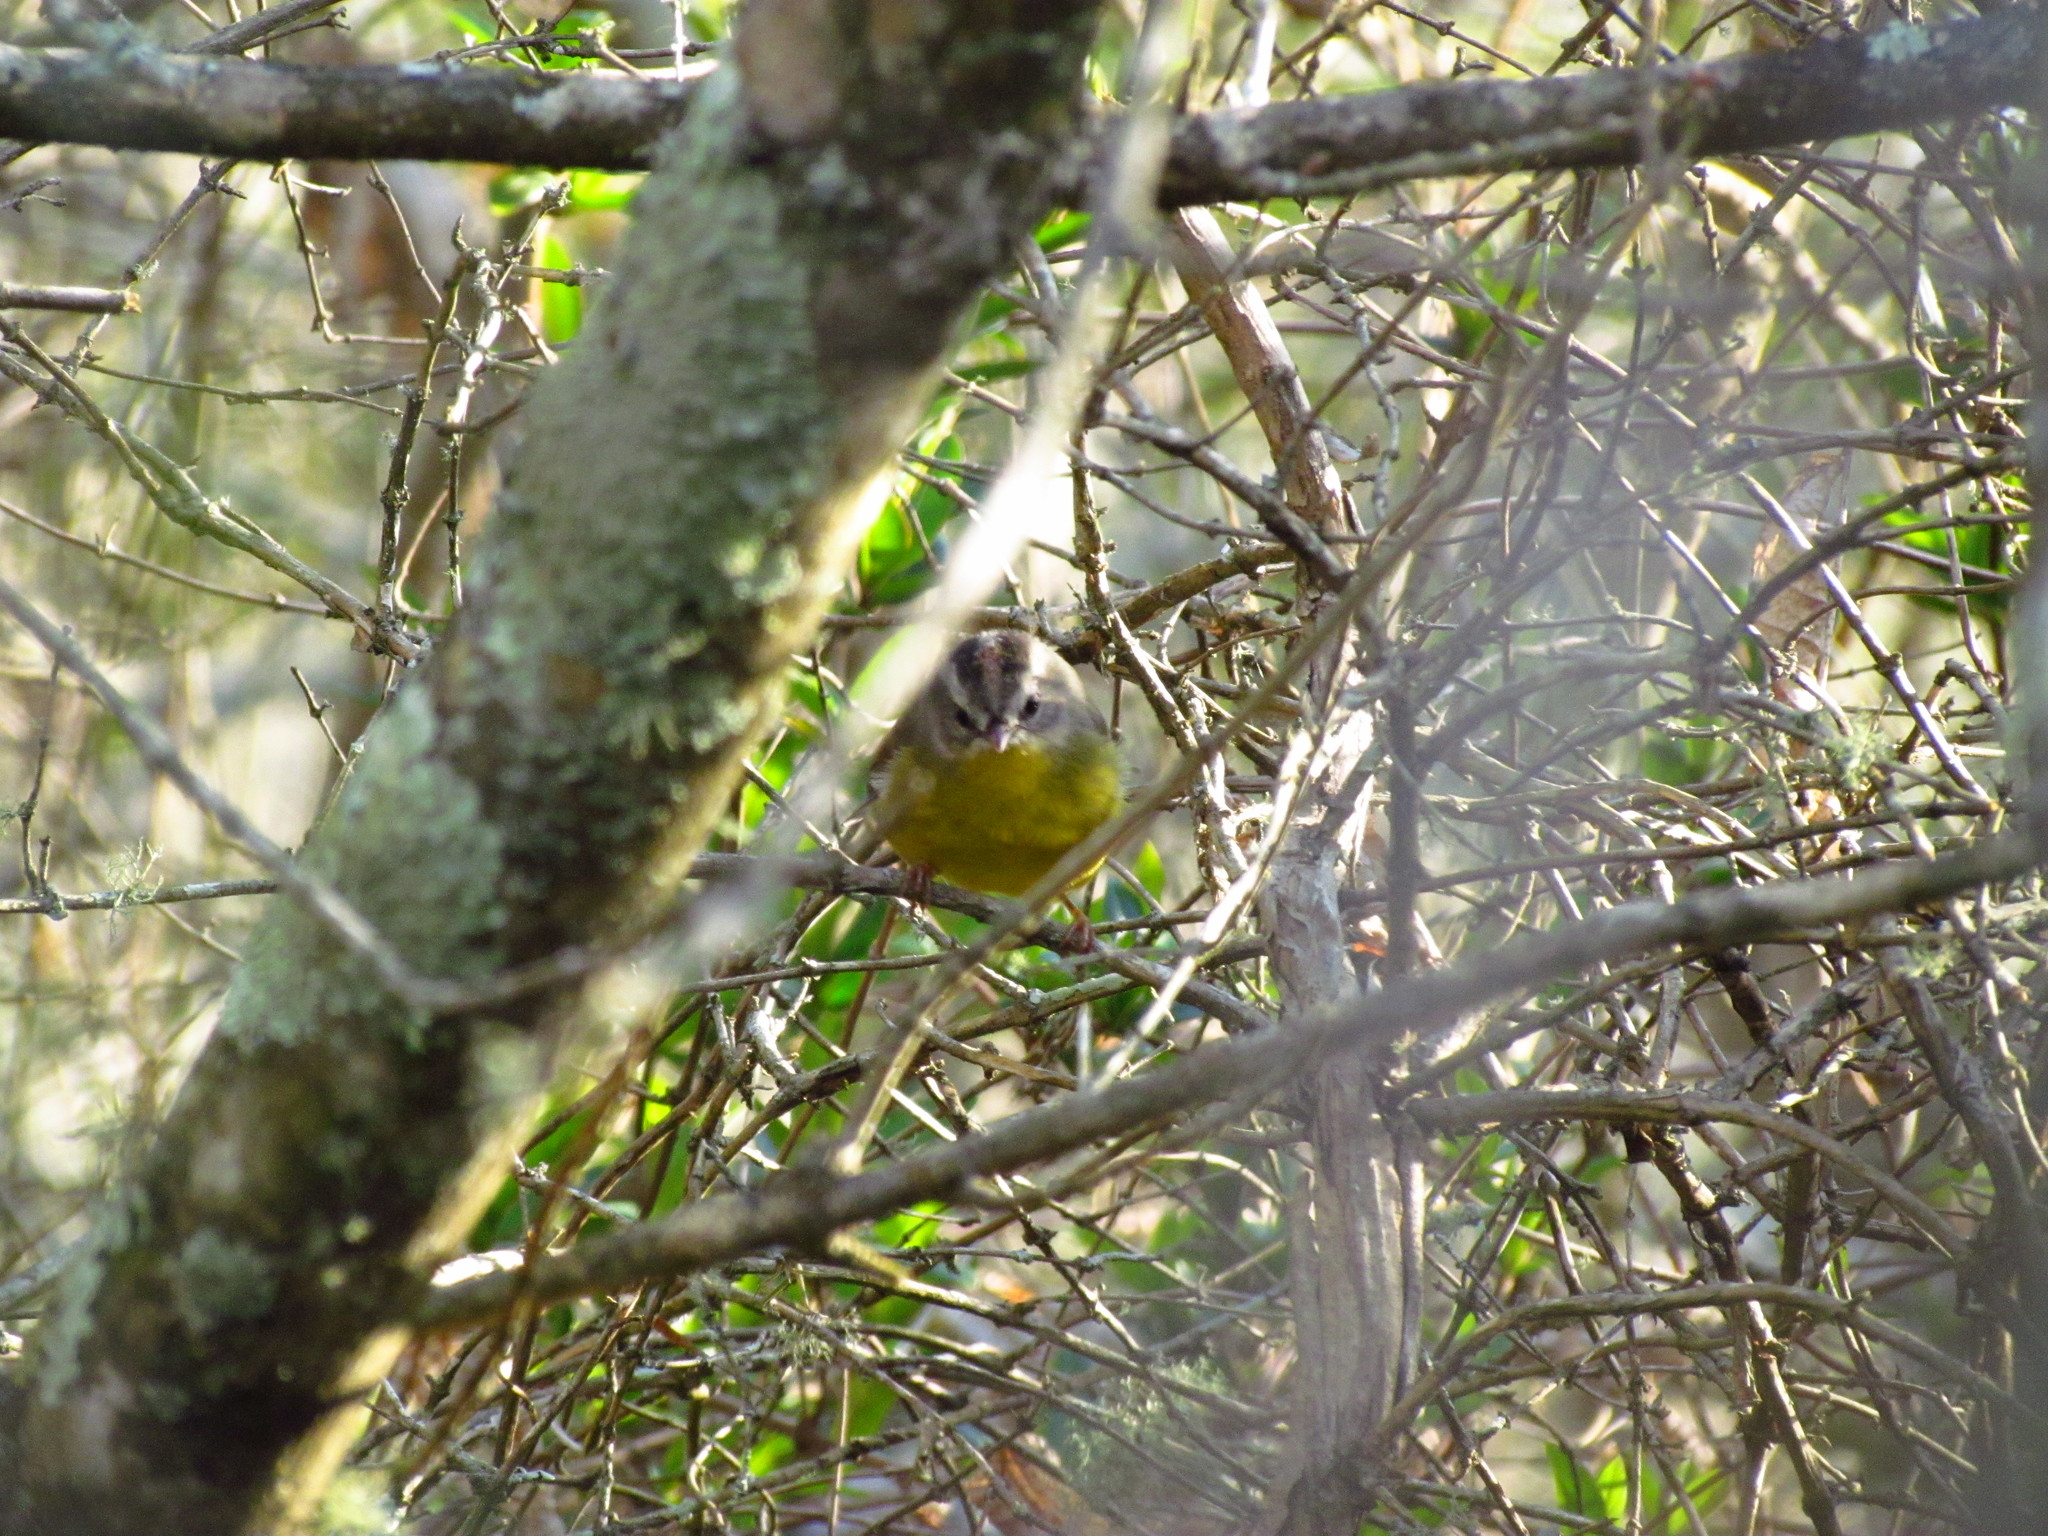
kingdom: Animalia
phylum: Chordata
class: Aves
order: Passeriformes
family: Parulidae
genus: Basileuterus
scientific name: Basileuterus culicivorus
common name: Golden-crowned warbler
